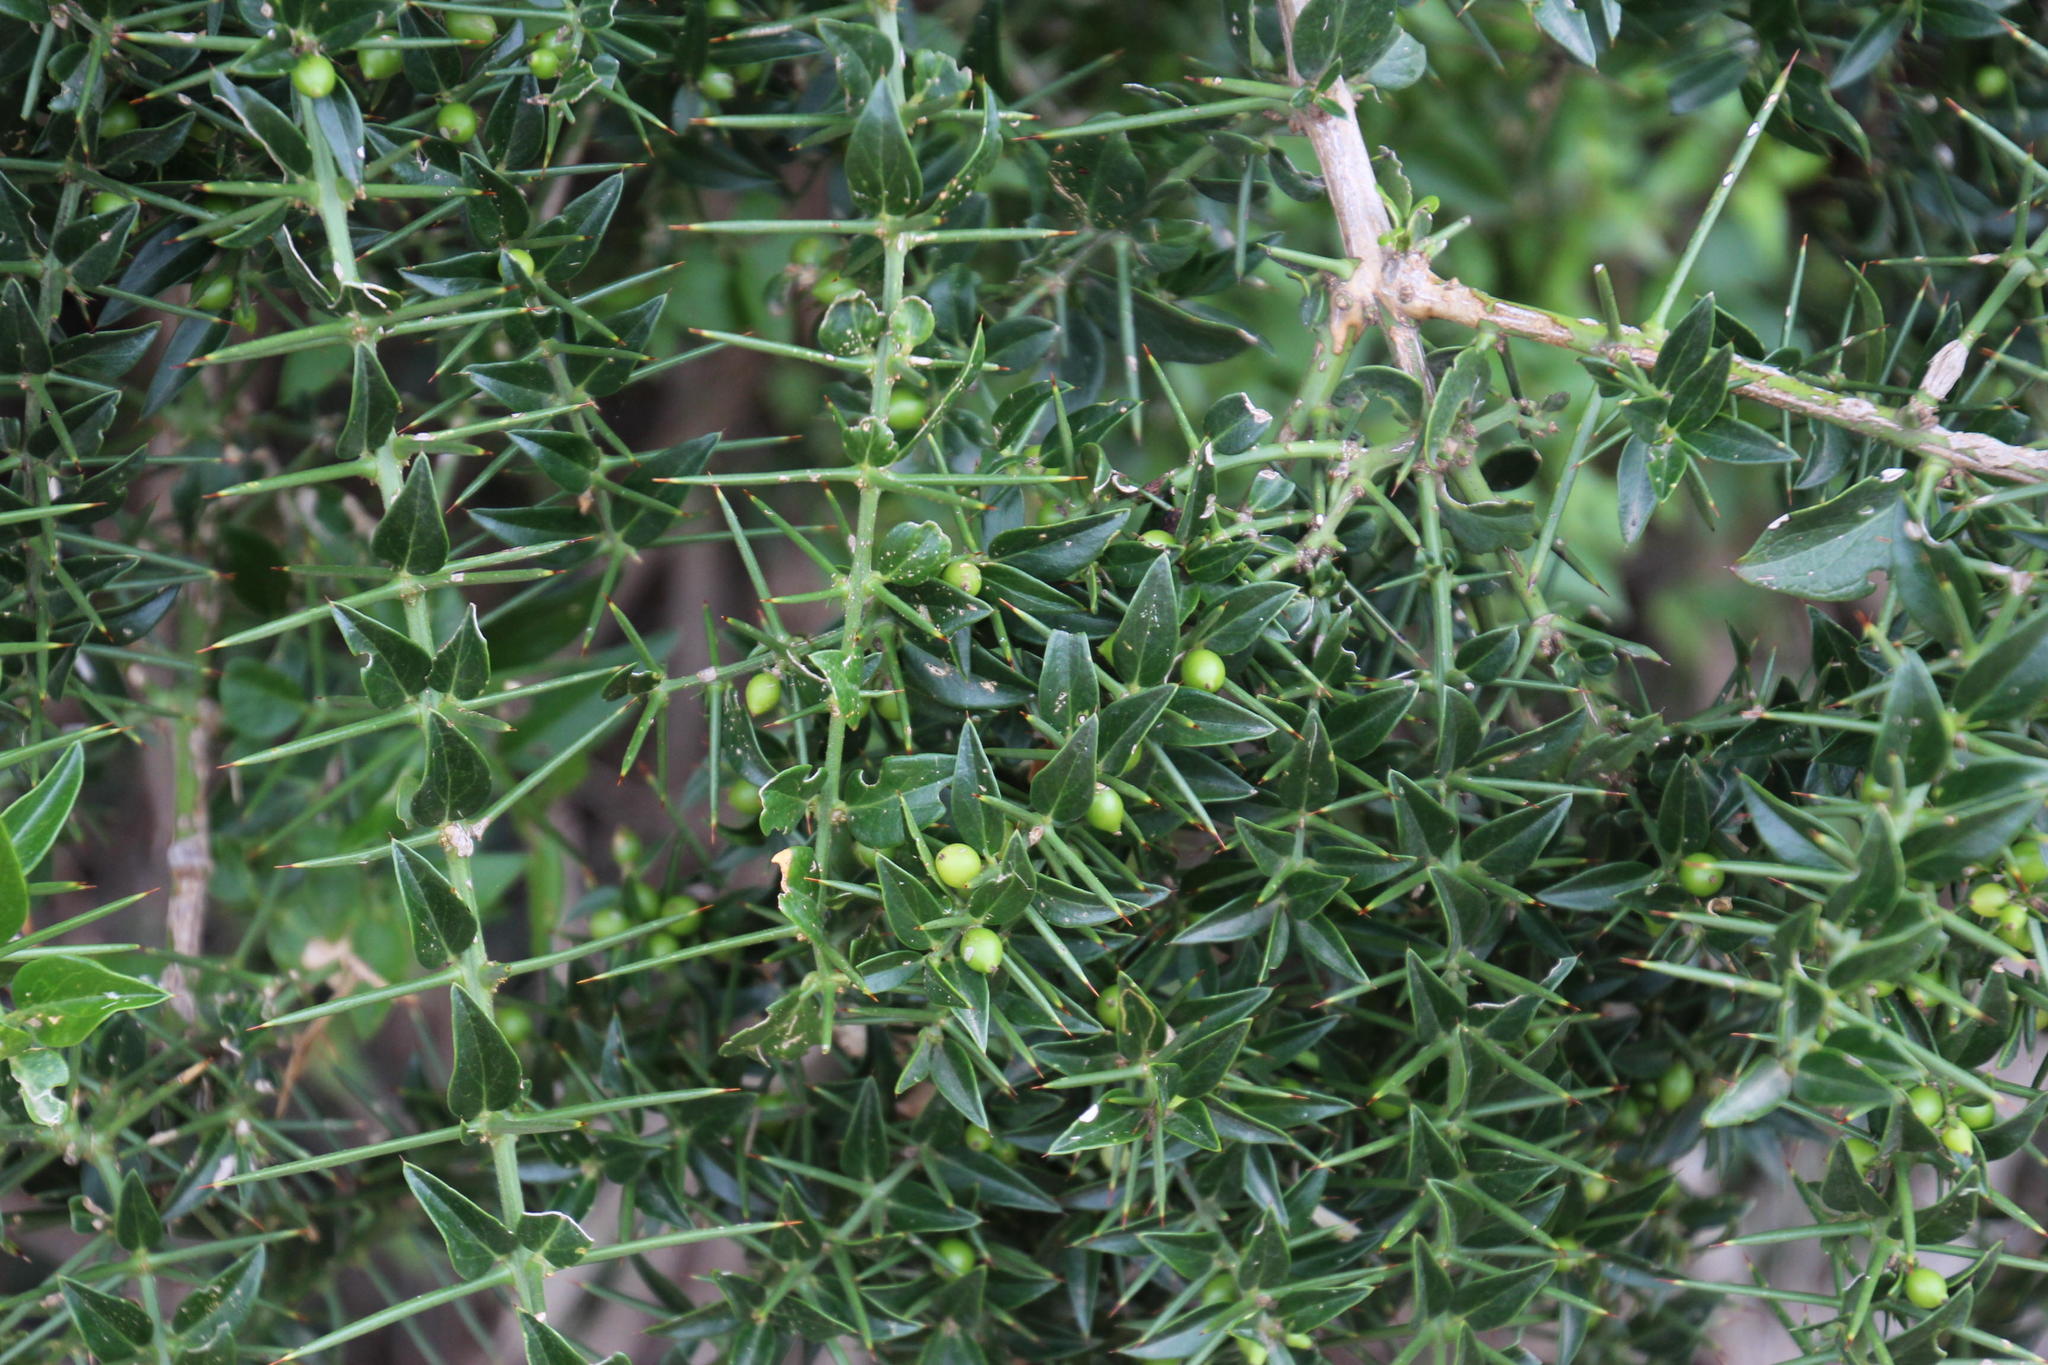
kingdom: Plantae
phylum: Tracheophyta
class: Magnoliopsida
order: Brassicales
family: Salvadoraceae
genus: Azima
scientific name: Azima tetracantha
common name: Needle bush
